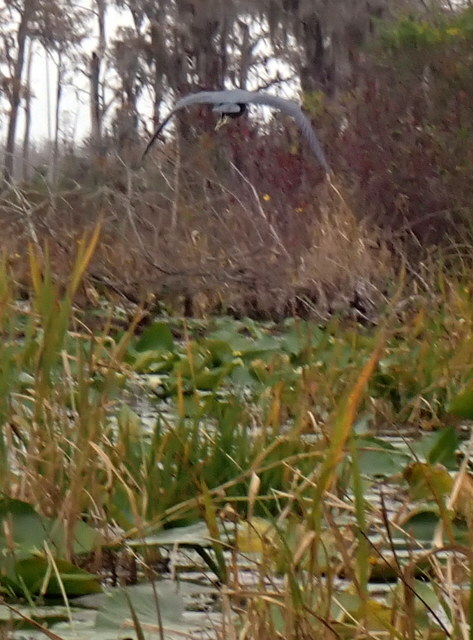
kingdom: Animalia
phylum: Chordata
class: Aves
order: Pelecaniformes
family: Ardeidae
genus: Egretta
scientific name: Egretta caerulea
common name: Little blue heron
